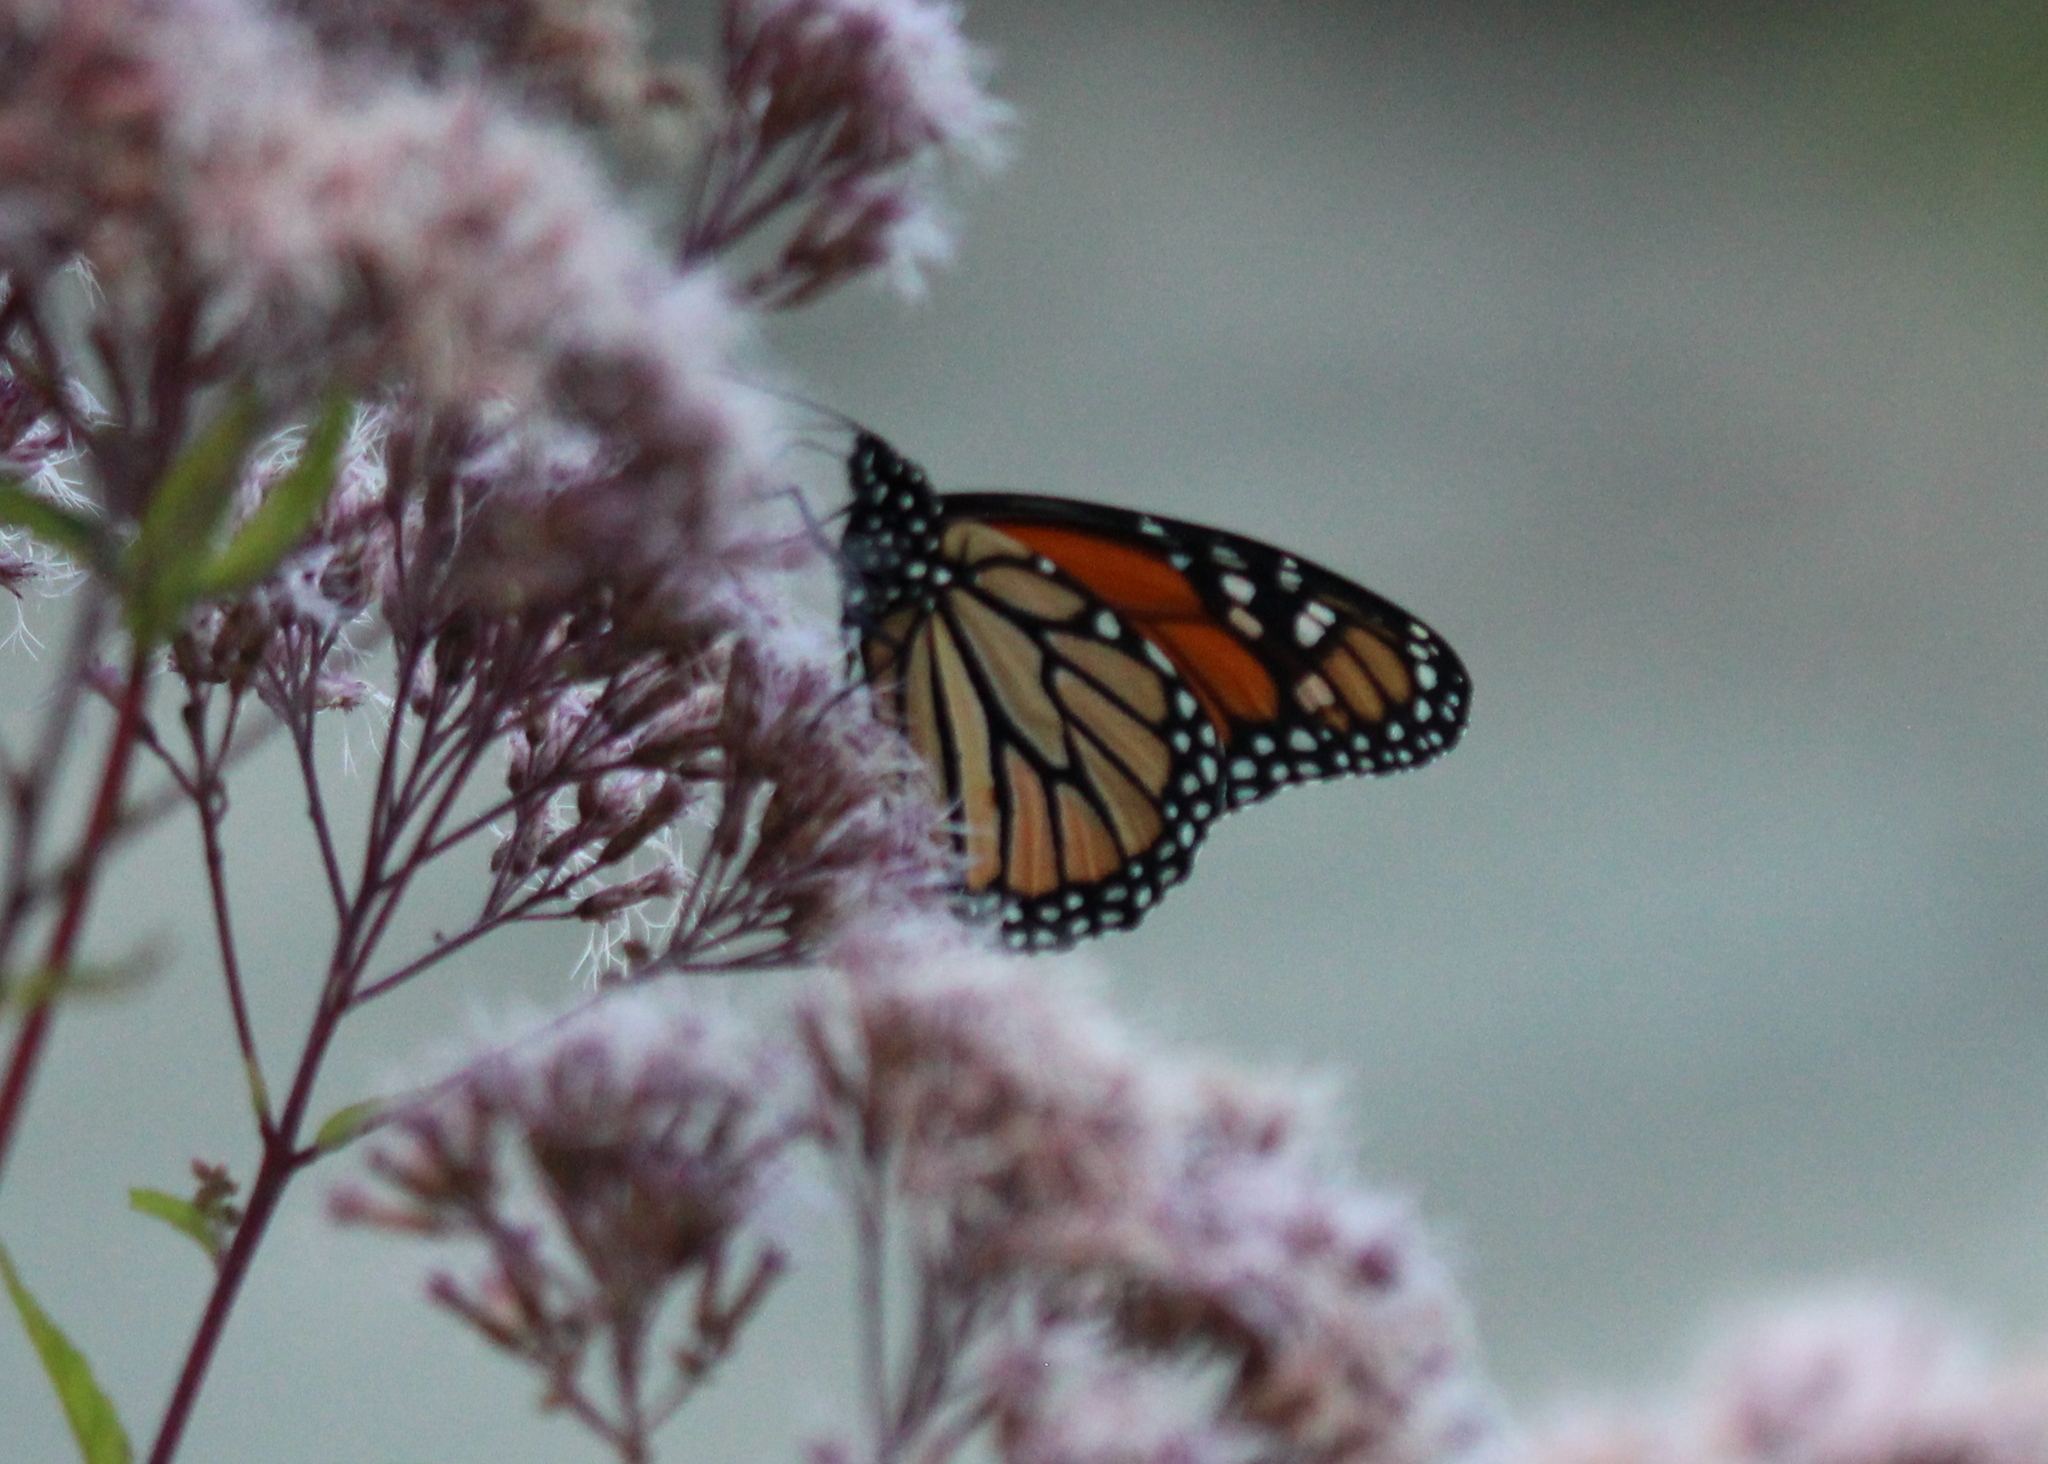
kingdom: Animalia
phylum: Arthropoda
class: Insecta
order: Lepidoptera
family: Nymphalidae
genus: Danaus
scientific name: Danaus plexippus
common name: Monarch
